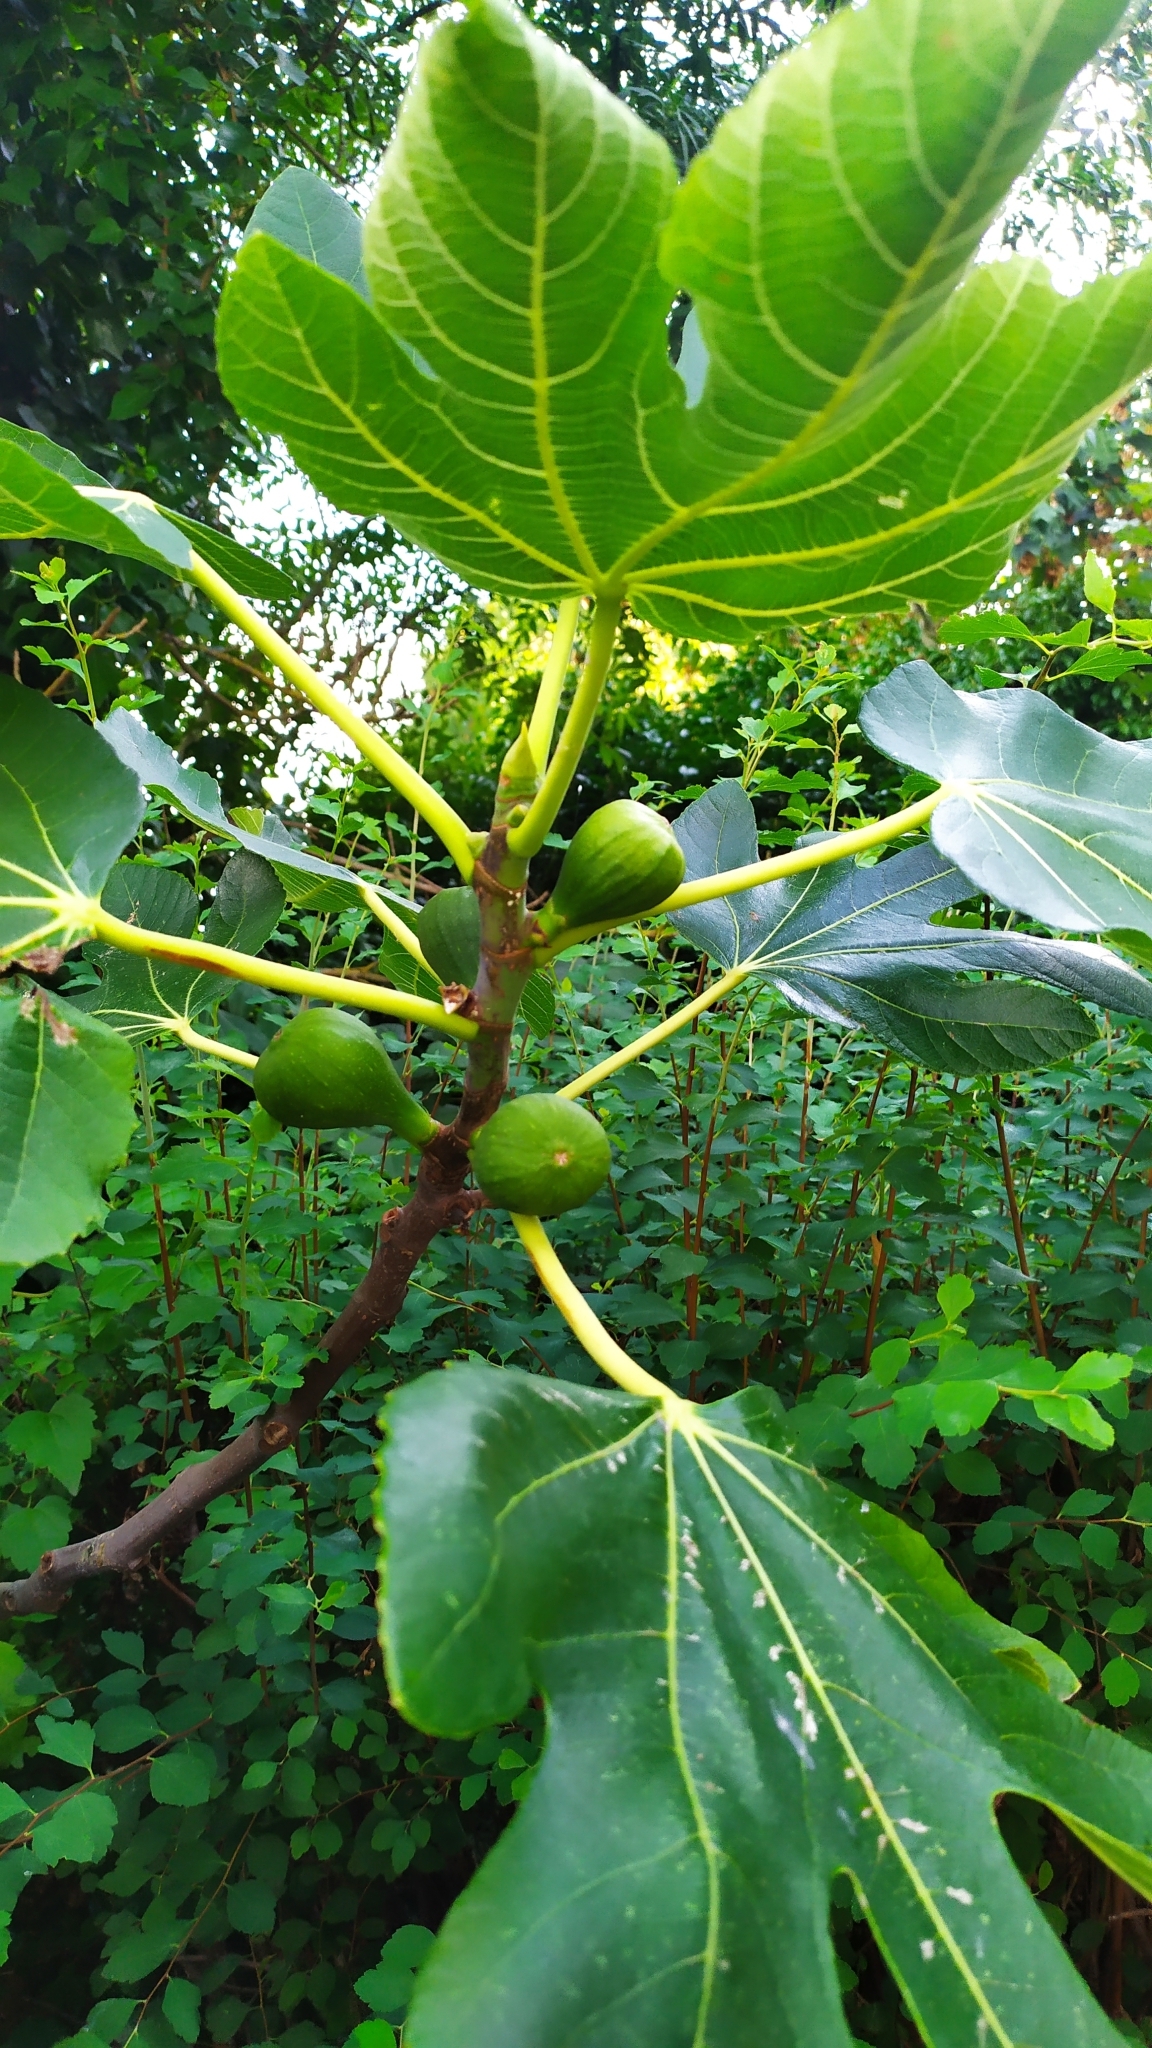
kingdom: Plantae
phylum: Tracheophyta
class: Magnoliopsida
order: Rosales
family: Moraceae
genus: Ficus
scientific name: Ficus carica
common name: Fig
